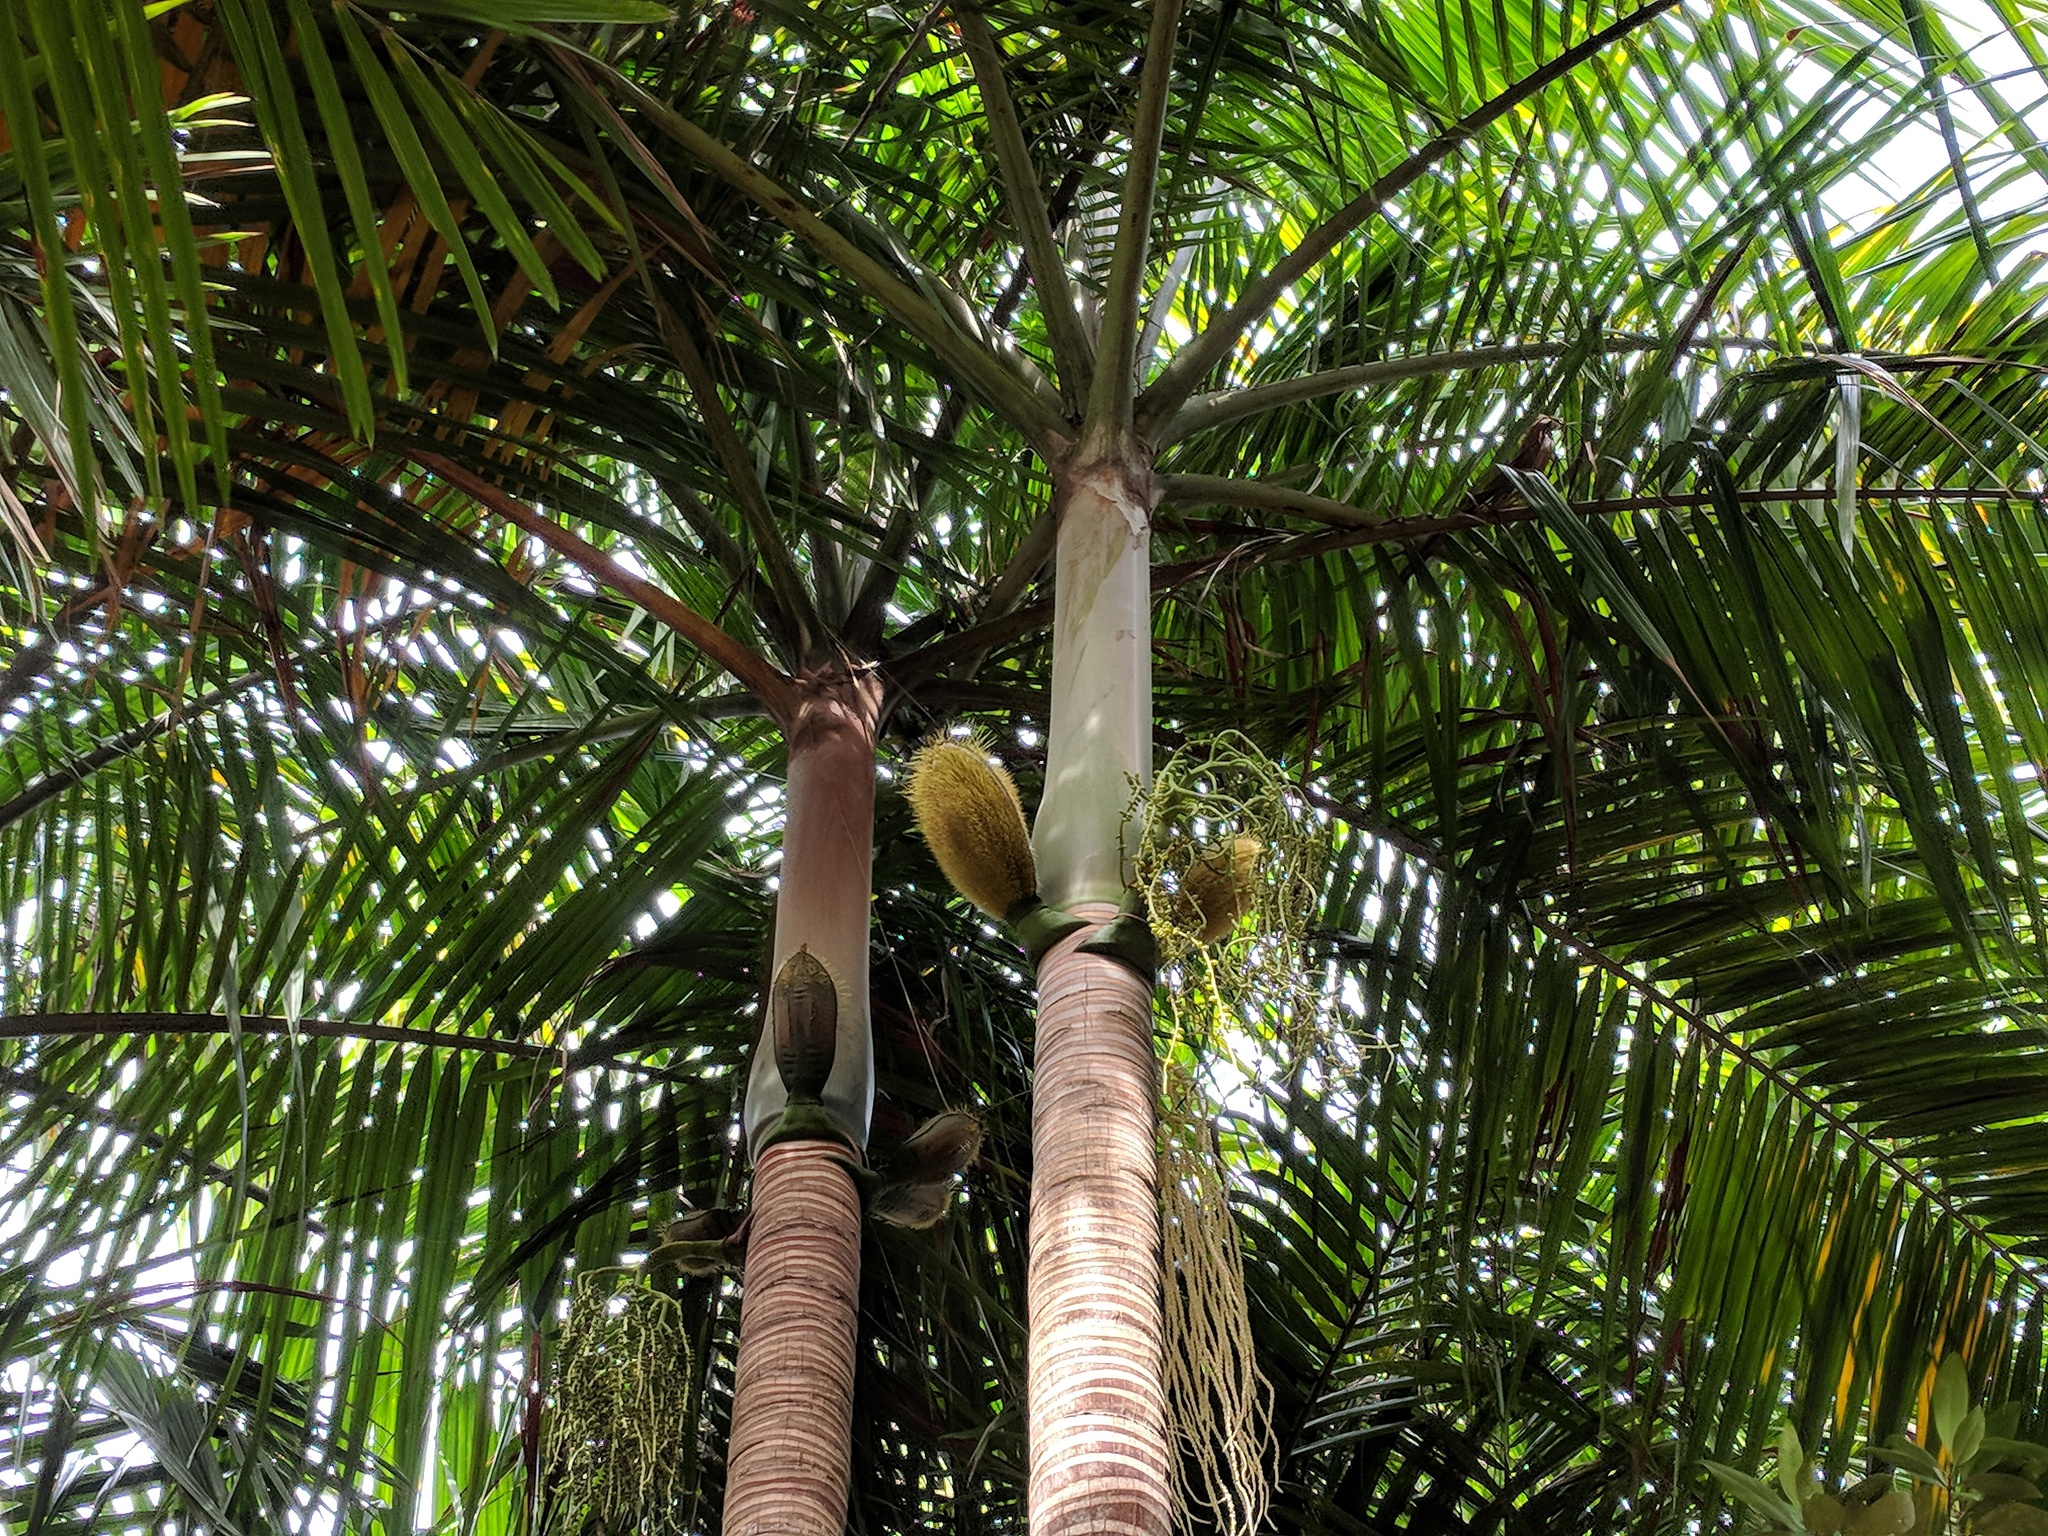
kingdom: Plantae
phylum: Tracheophyta
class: Liliopsida
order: Arecales
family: Arecaceae
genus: Deckenia
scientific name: Deckenia nobilis
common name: Cabbage palm
